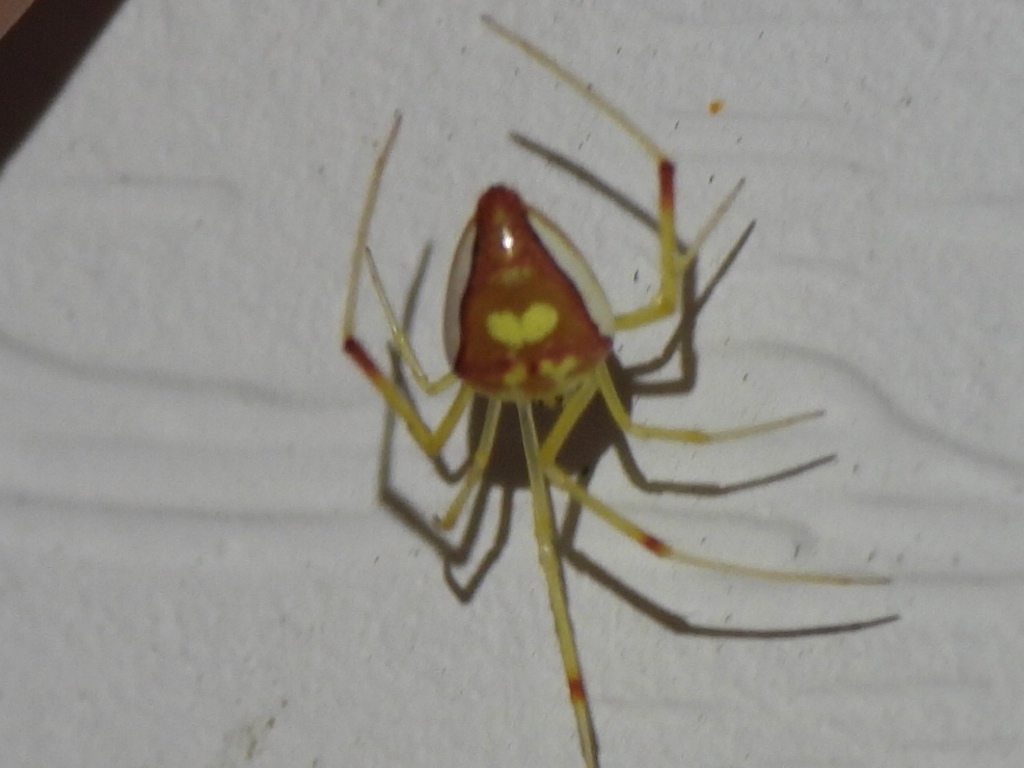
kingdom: Animalia
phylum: Arthropoda
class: Arachnida
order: Araneae
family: Theridiidae
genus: Spintharus
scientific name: Spintharus flavidus
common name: Cobweb spiders
